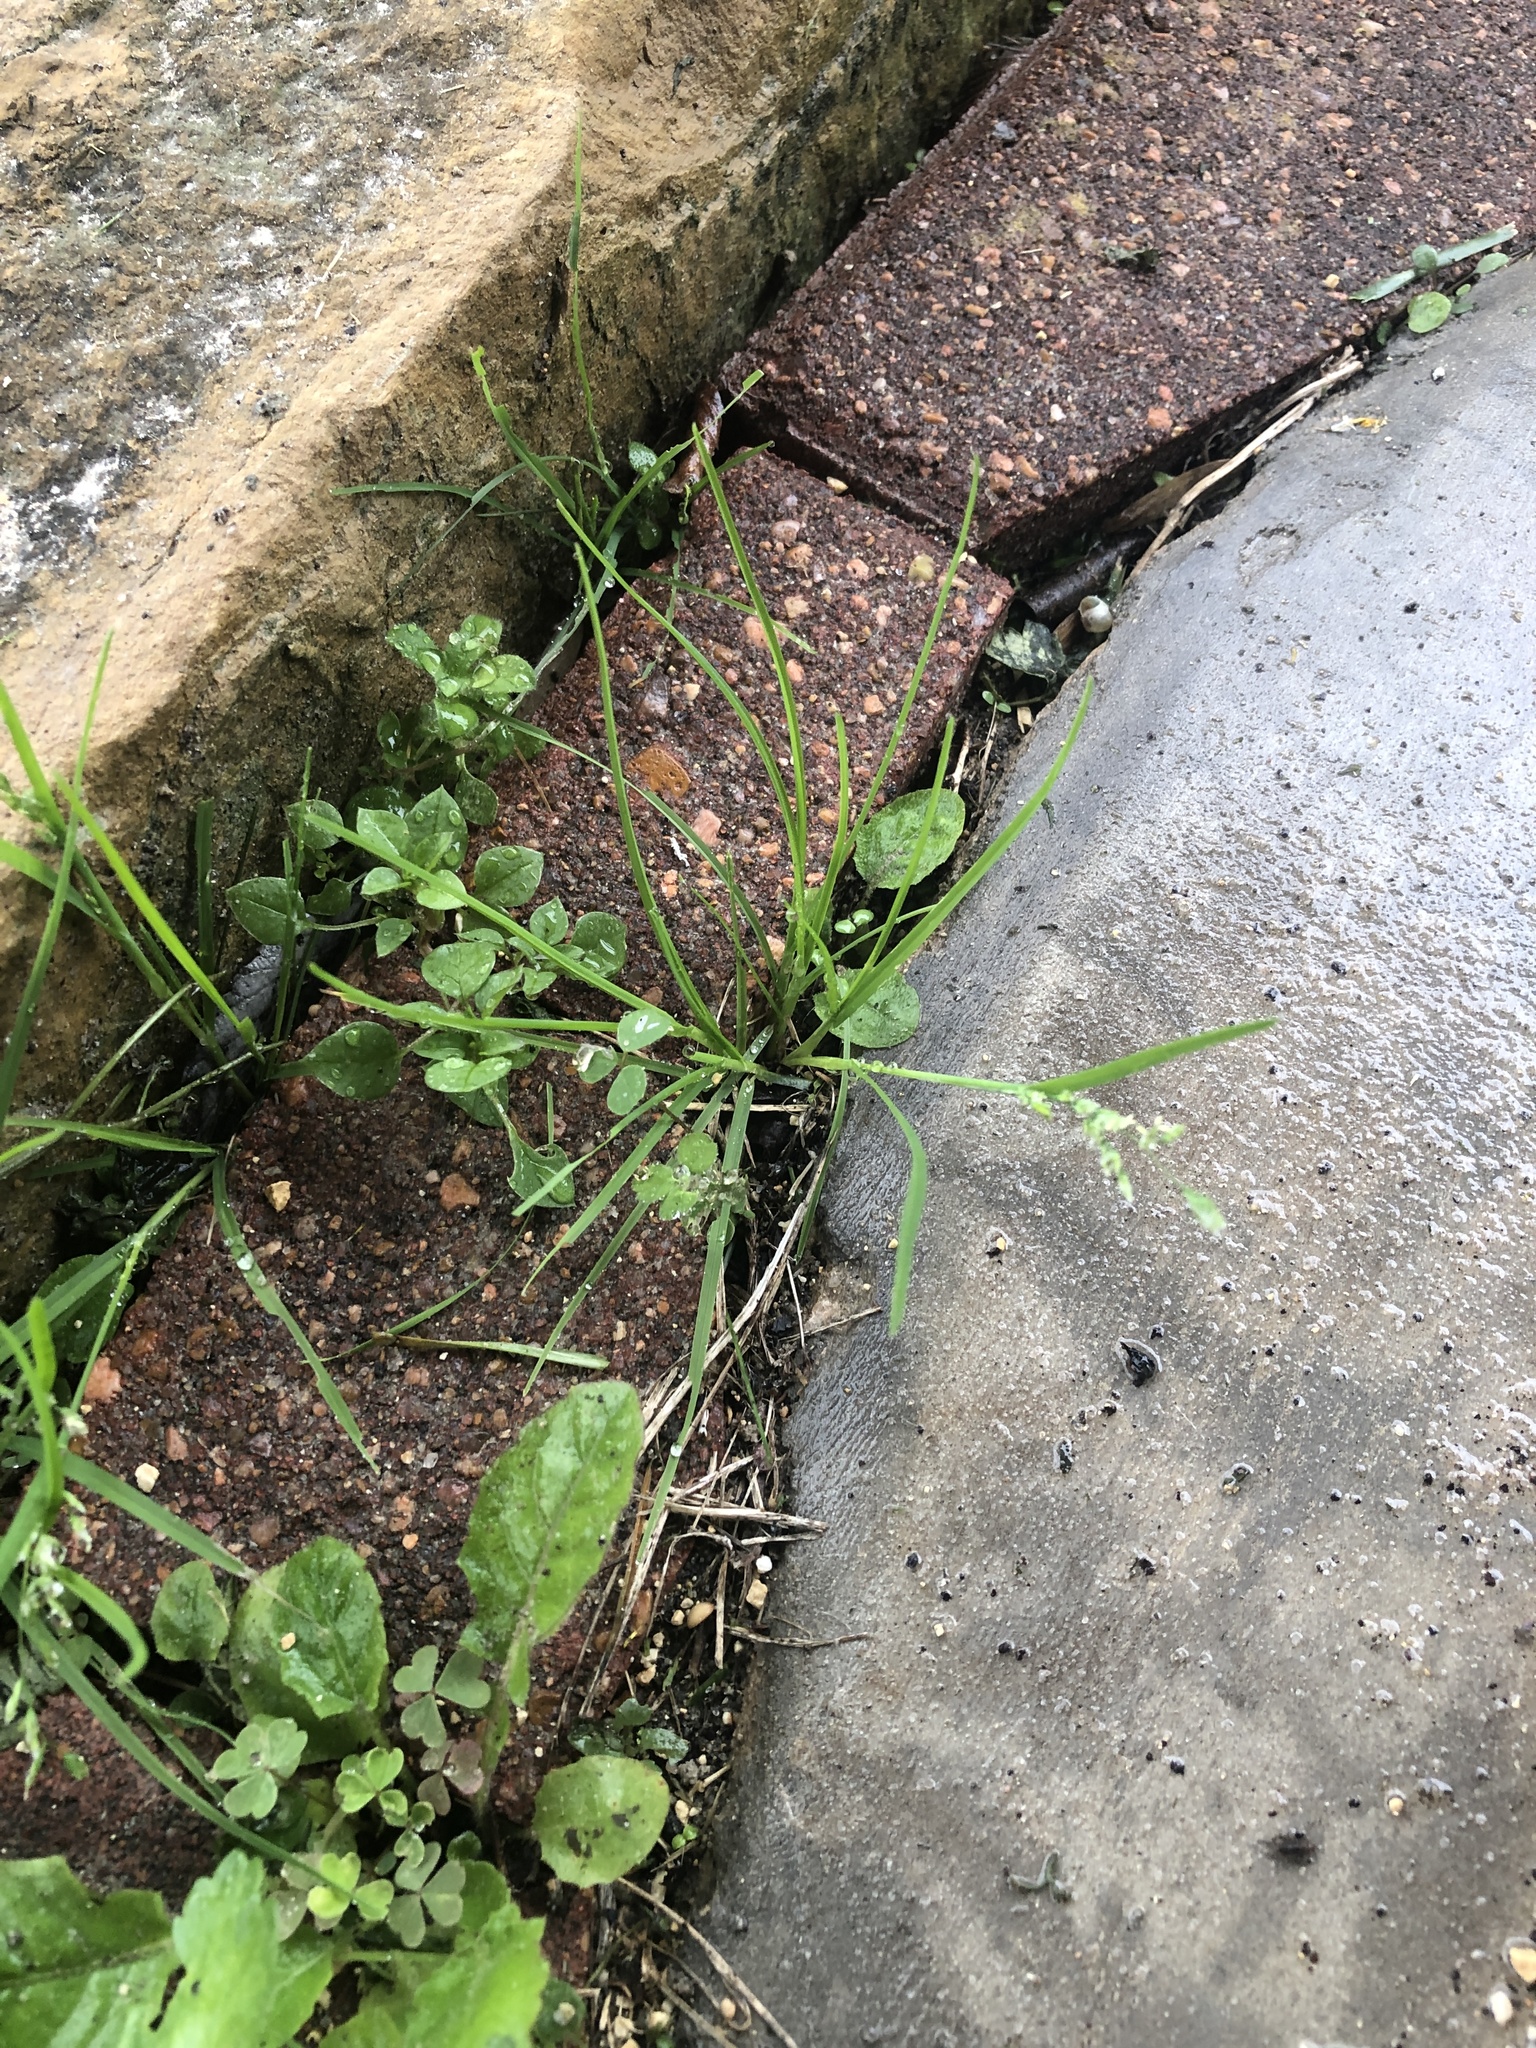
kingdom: Plantae
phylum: Tracheophyta
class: Liliopsida
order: Poales
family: Poaceae
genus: Poa
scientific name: Poa annua
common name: Annual bluegrass
